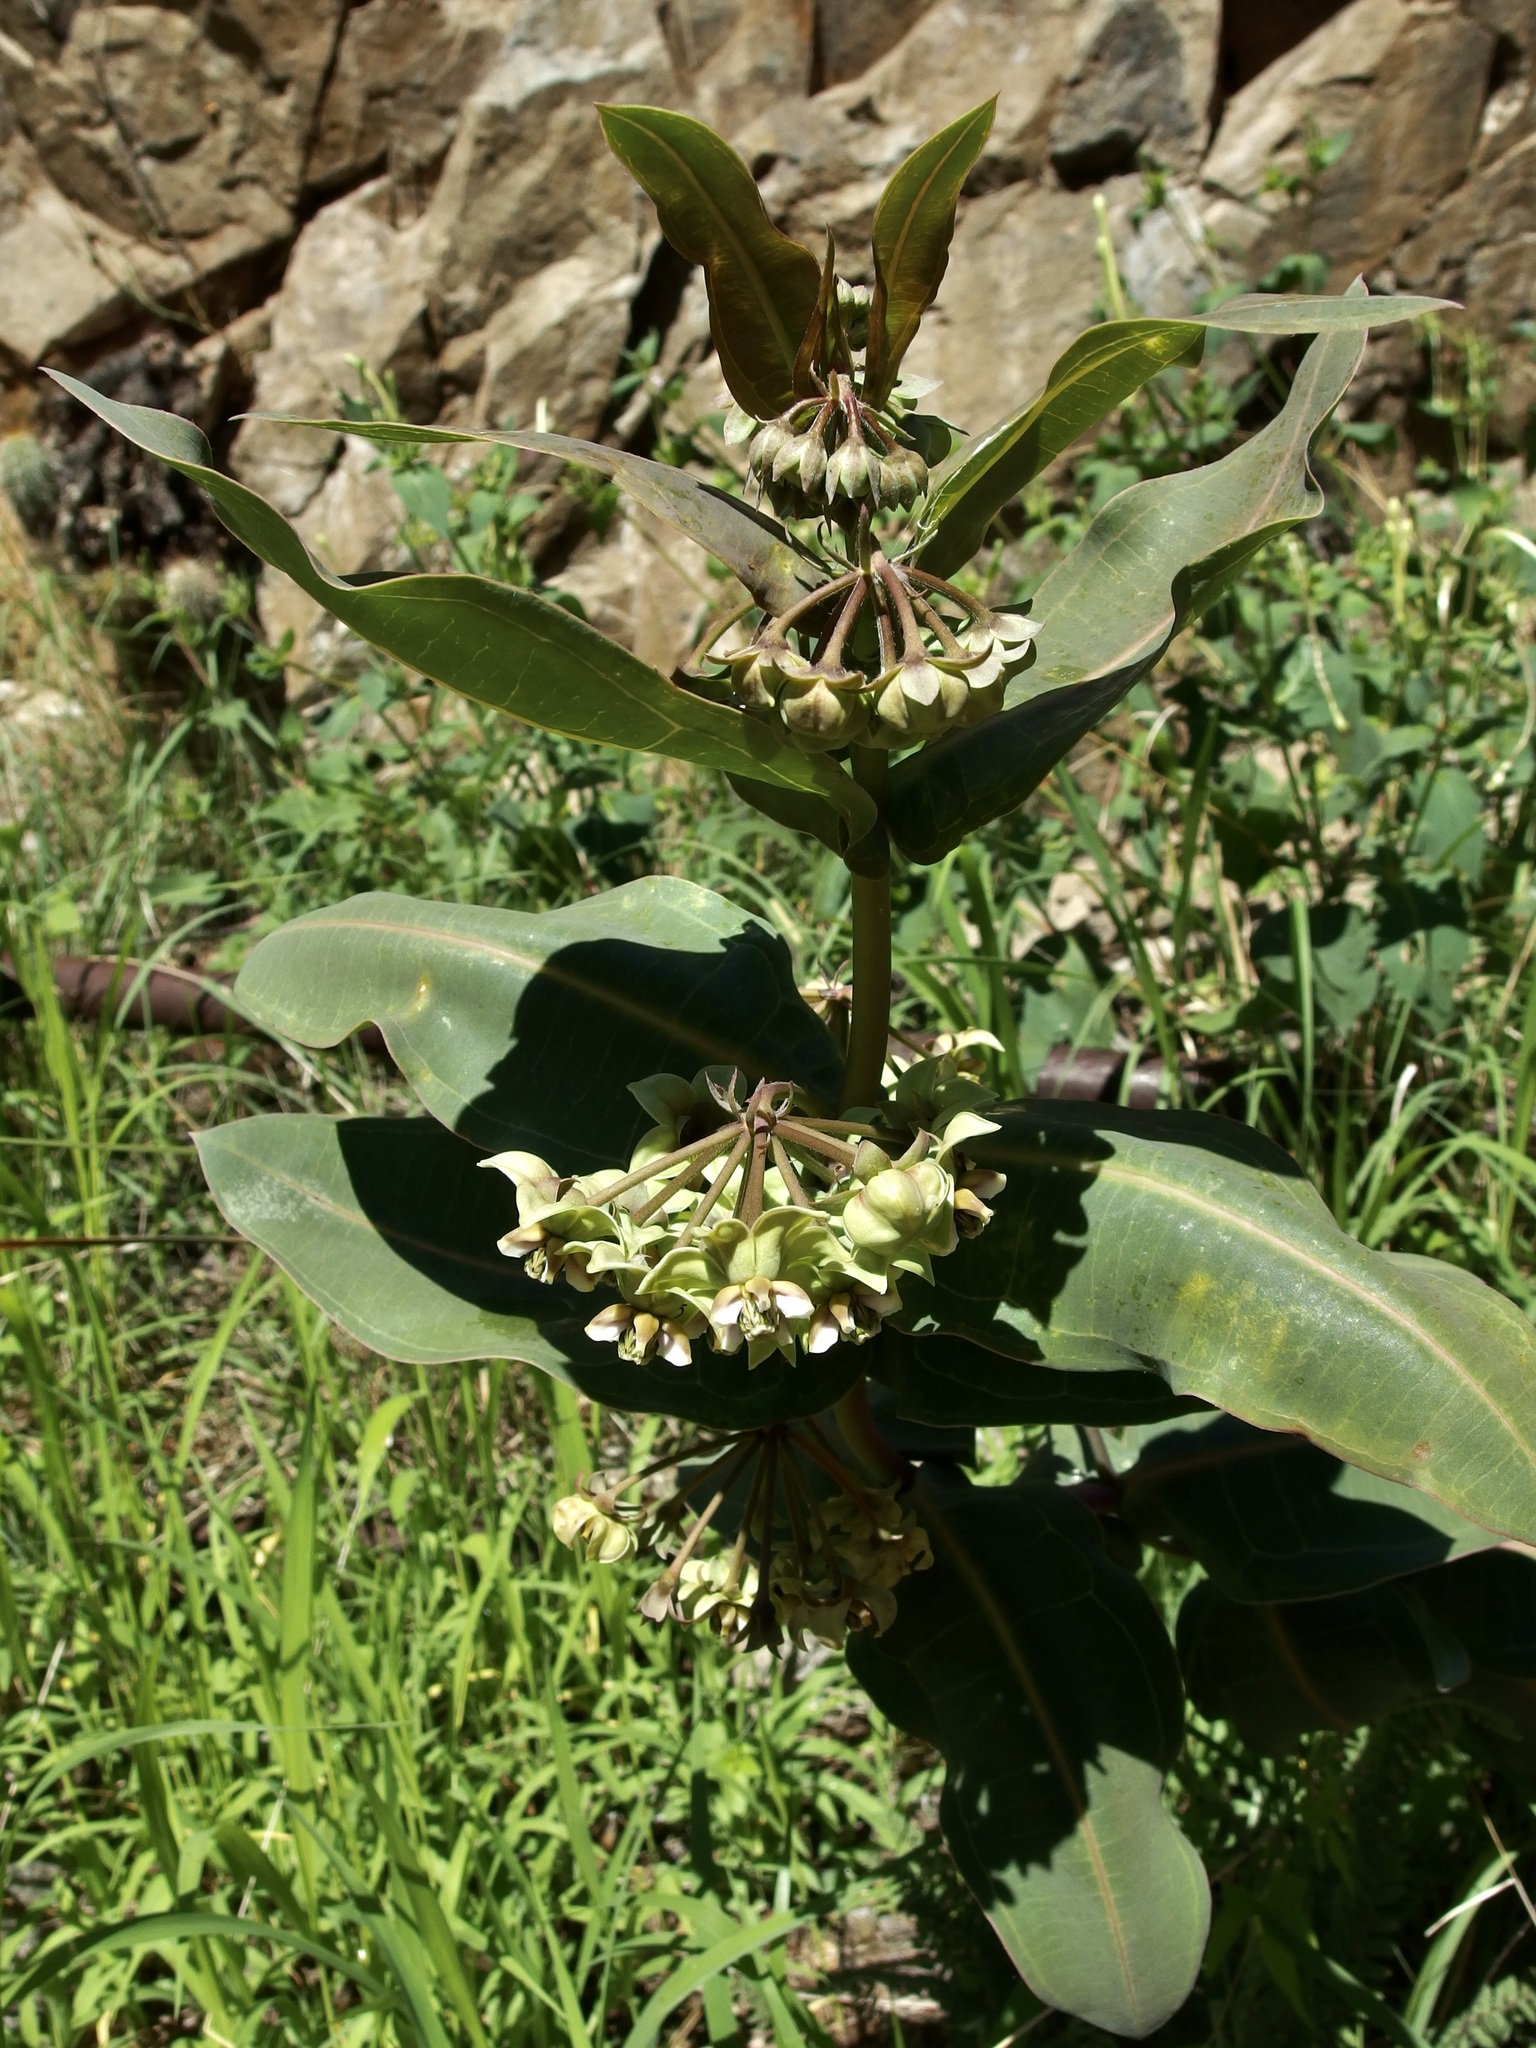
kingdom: Plantae
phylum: Tracheophyta
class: Magnoliopsida
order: Gentianales
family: Apocynaceae
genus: Asclepias
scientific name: Asclepias elata
